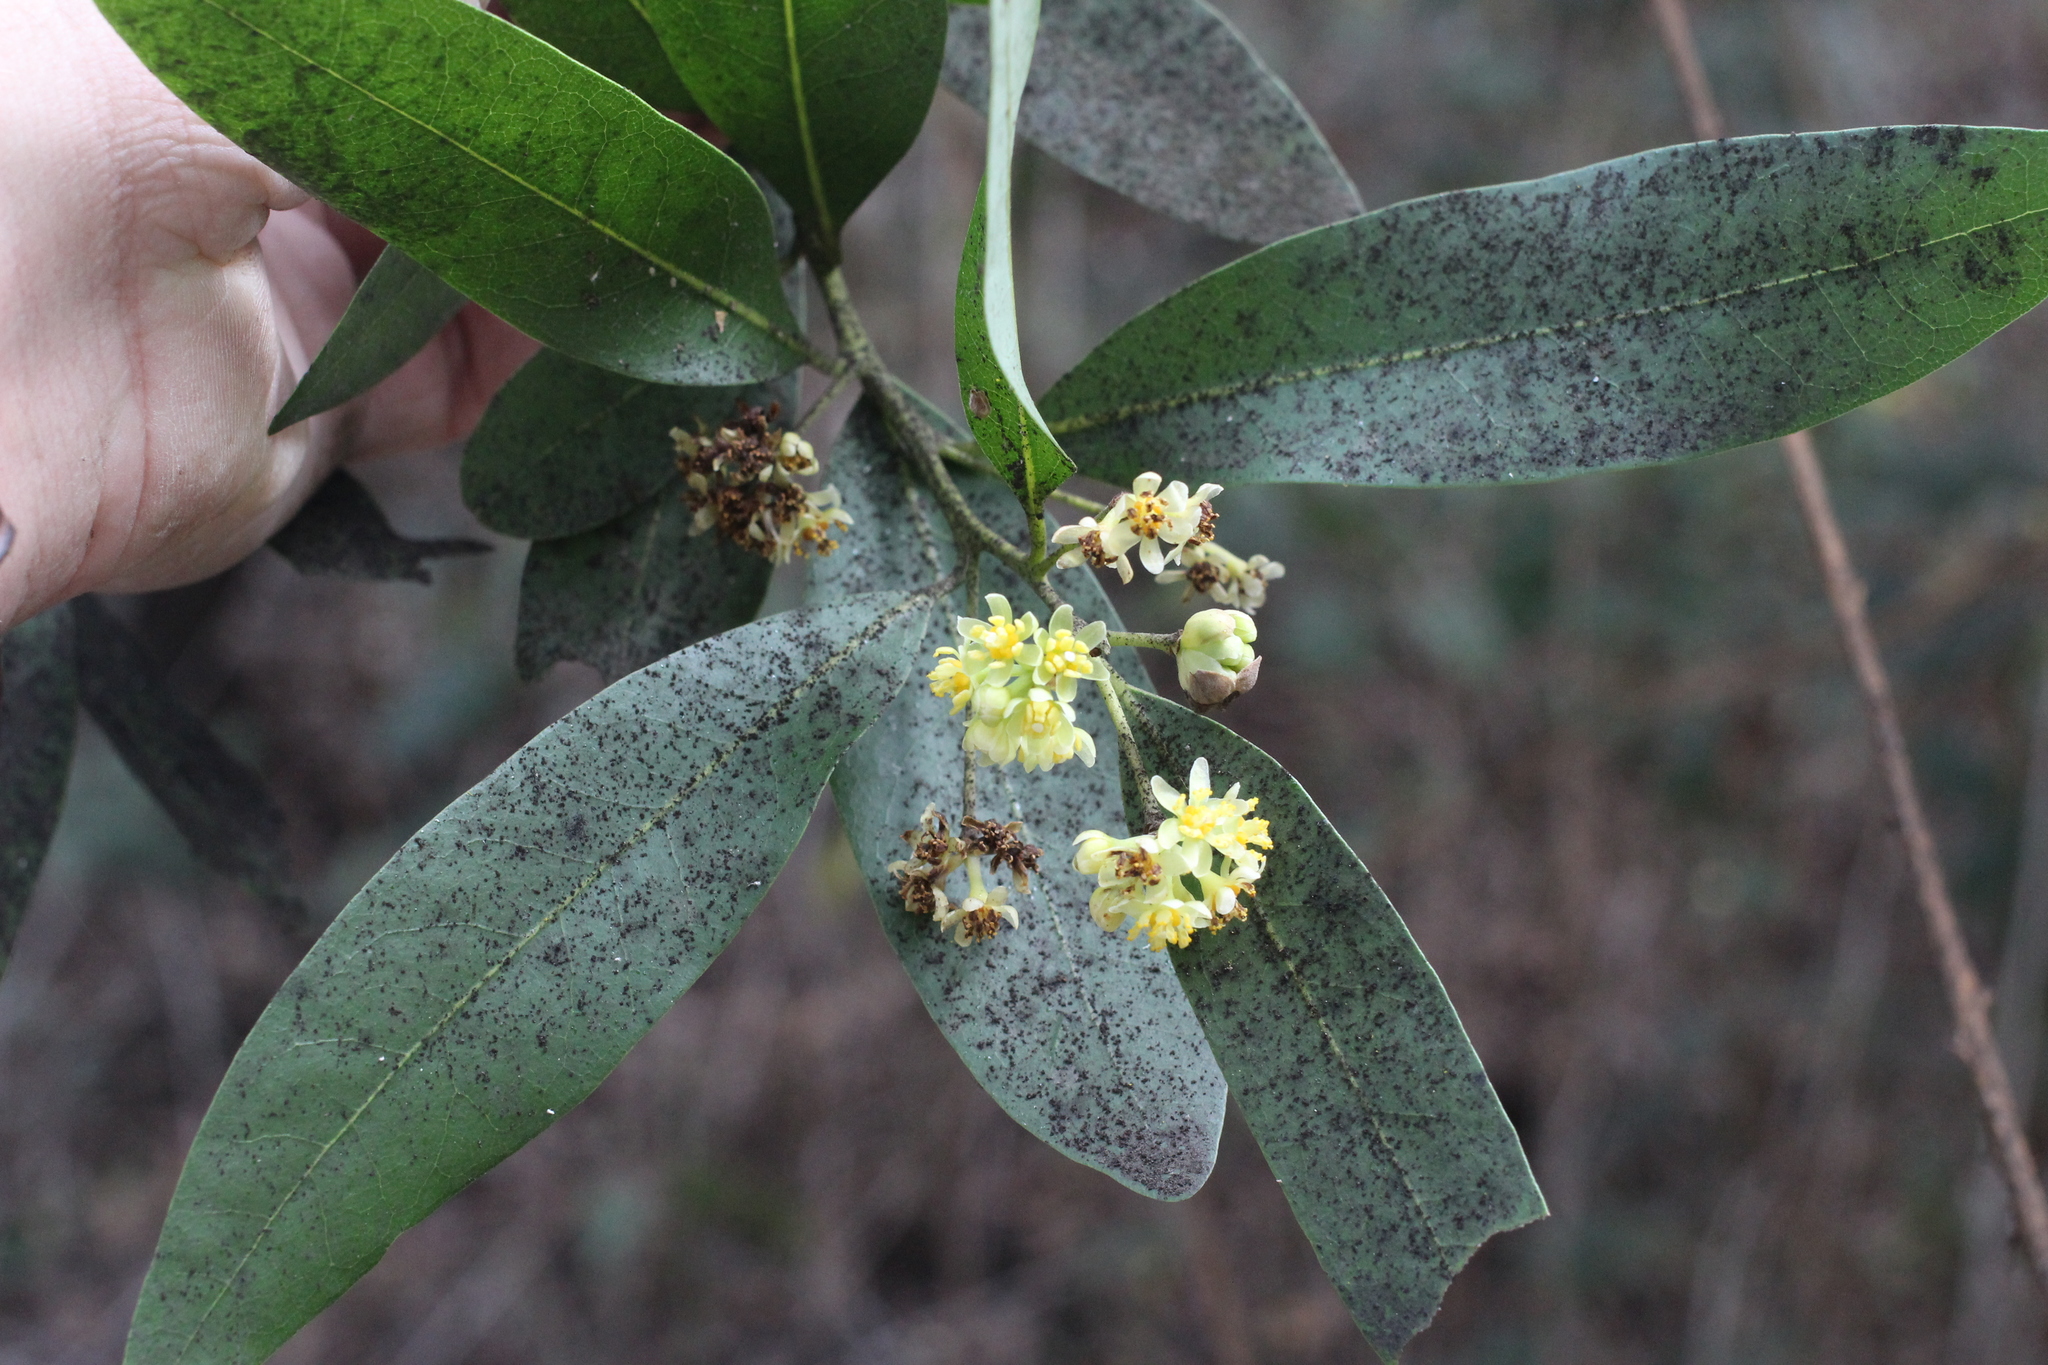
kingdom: Plantae
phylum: Tracheophyta
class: Magnoliopsida
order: Laurales
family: Lauraceae
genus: Umbellularia
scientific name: Umbellularia californica
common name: California bay
